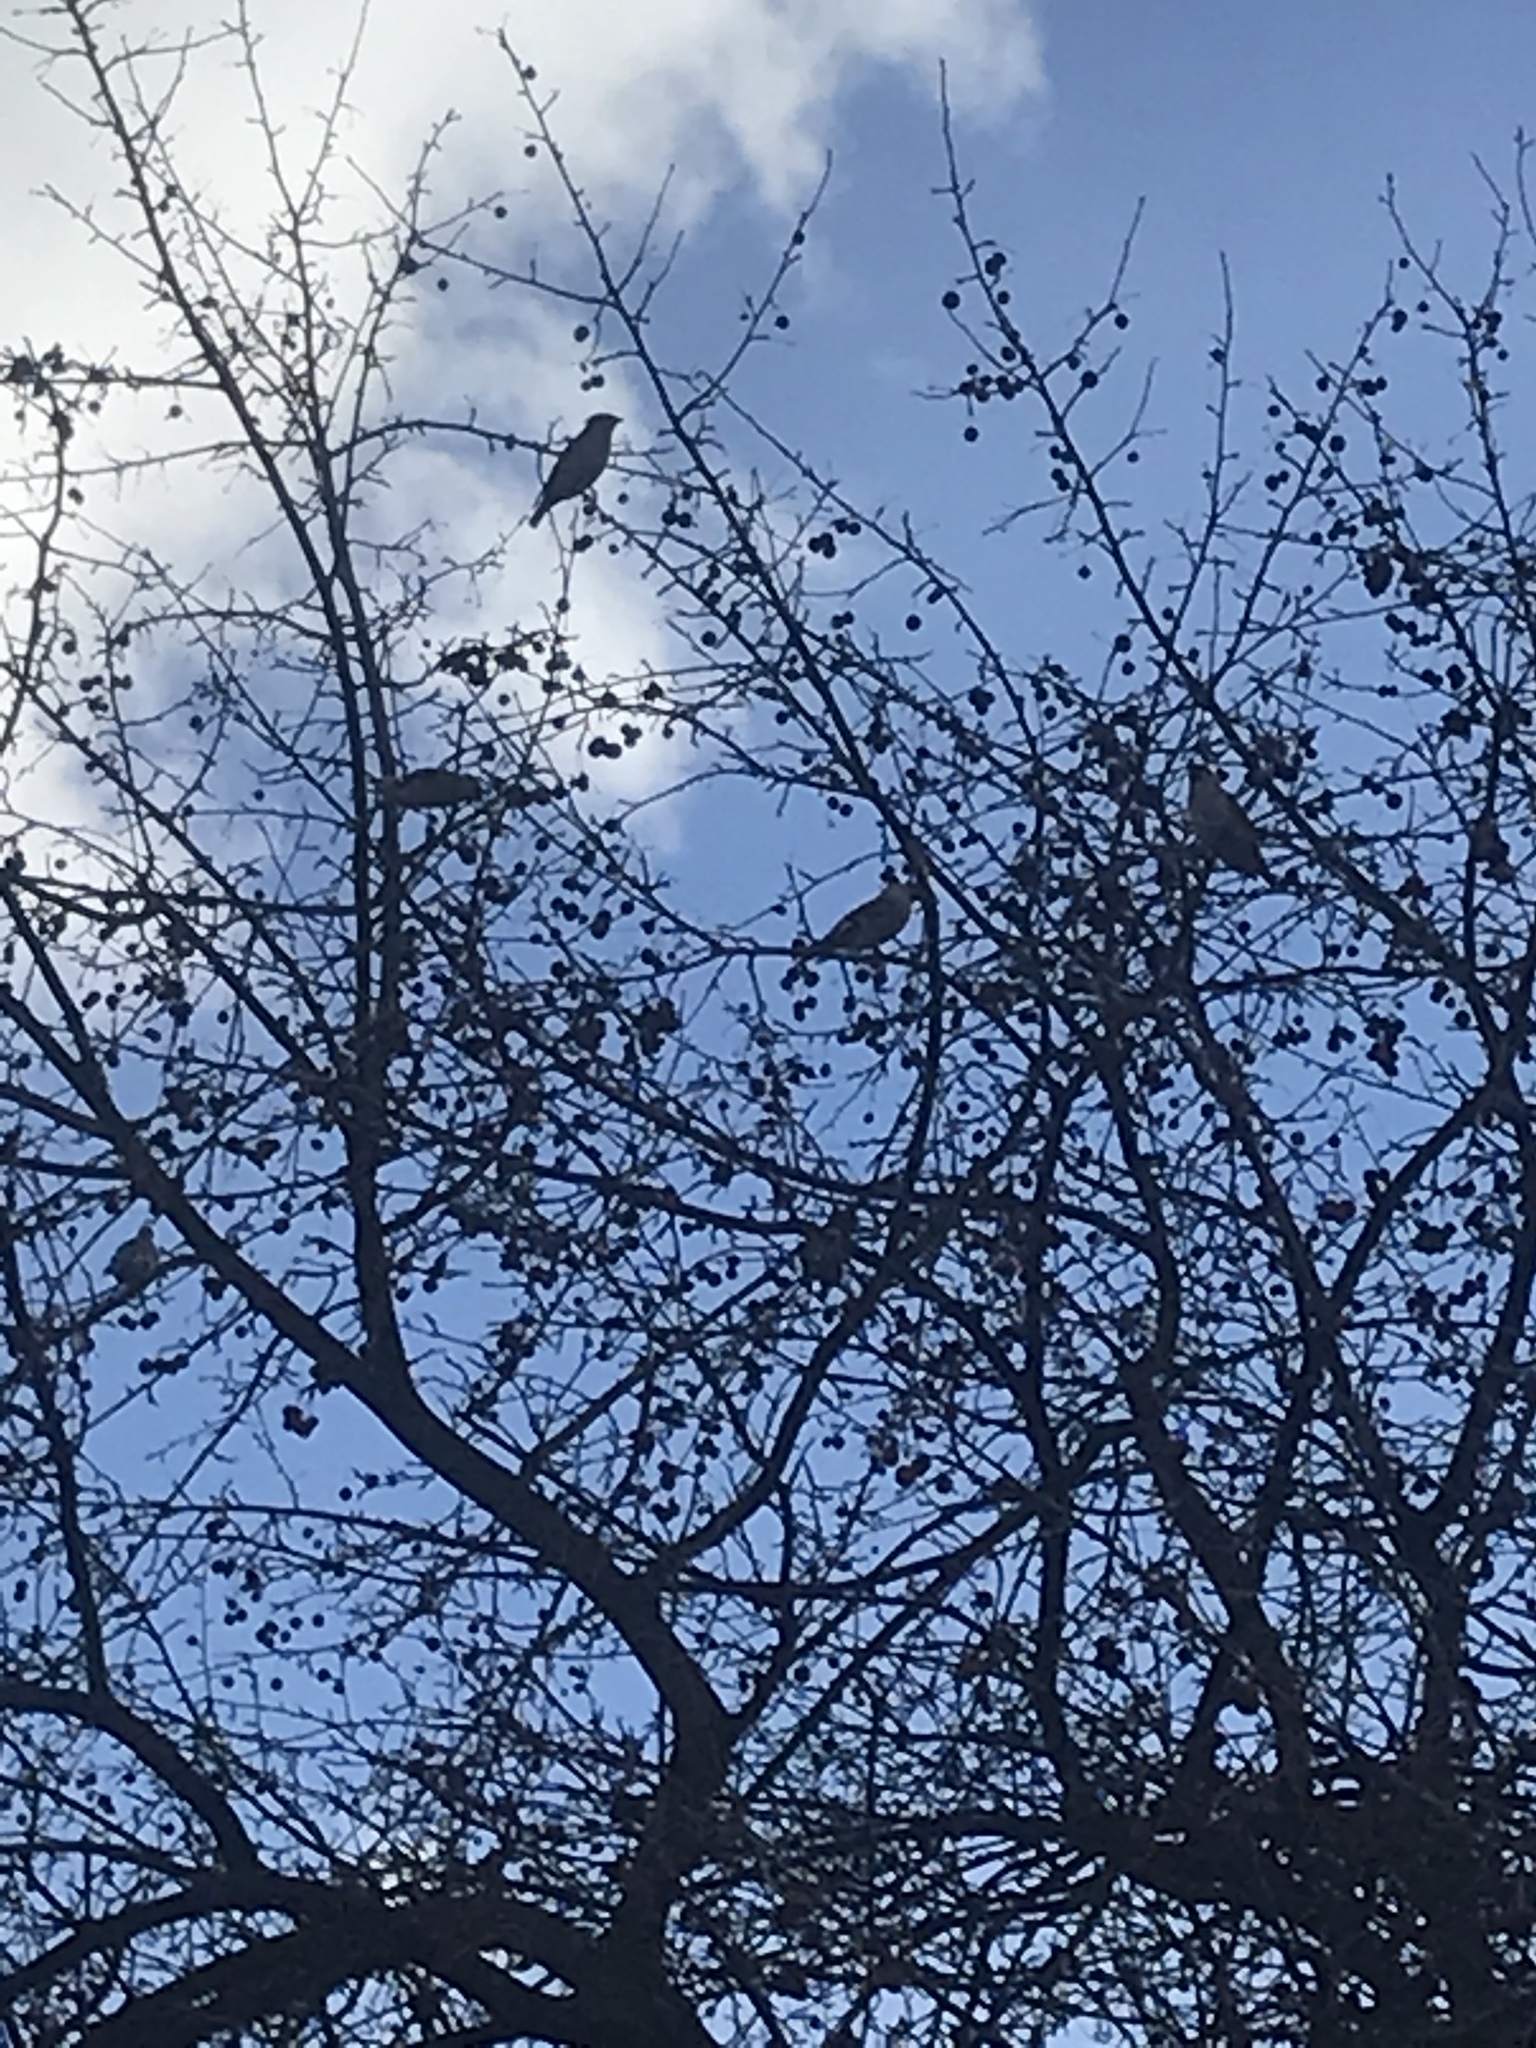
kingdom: Animalia
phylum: Chordata
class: Aves
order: Passeriformes
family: Bombycillidae
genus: Bombycilla
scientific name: Bombycilla garrulus
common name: Bohemian waxwing
